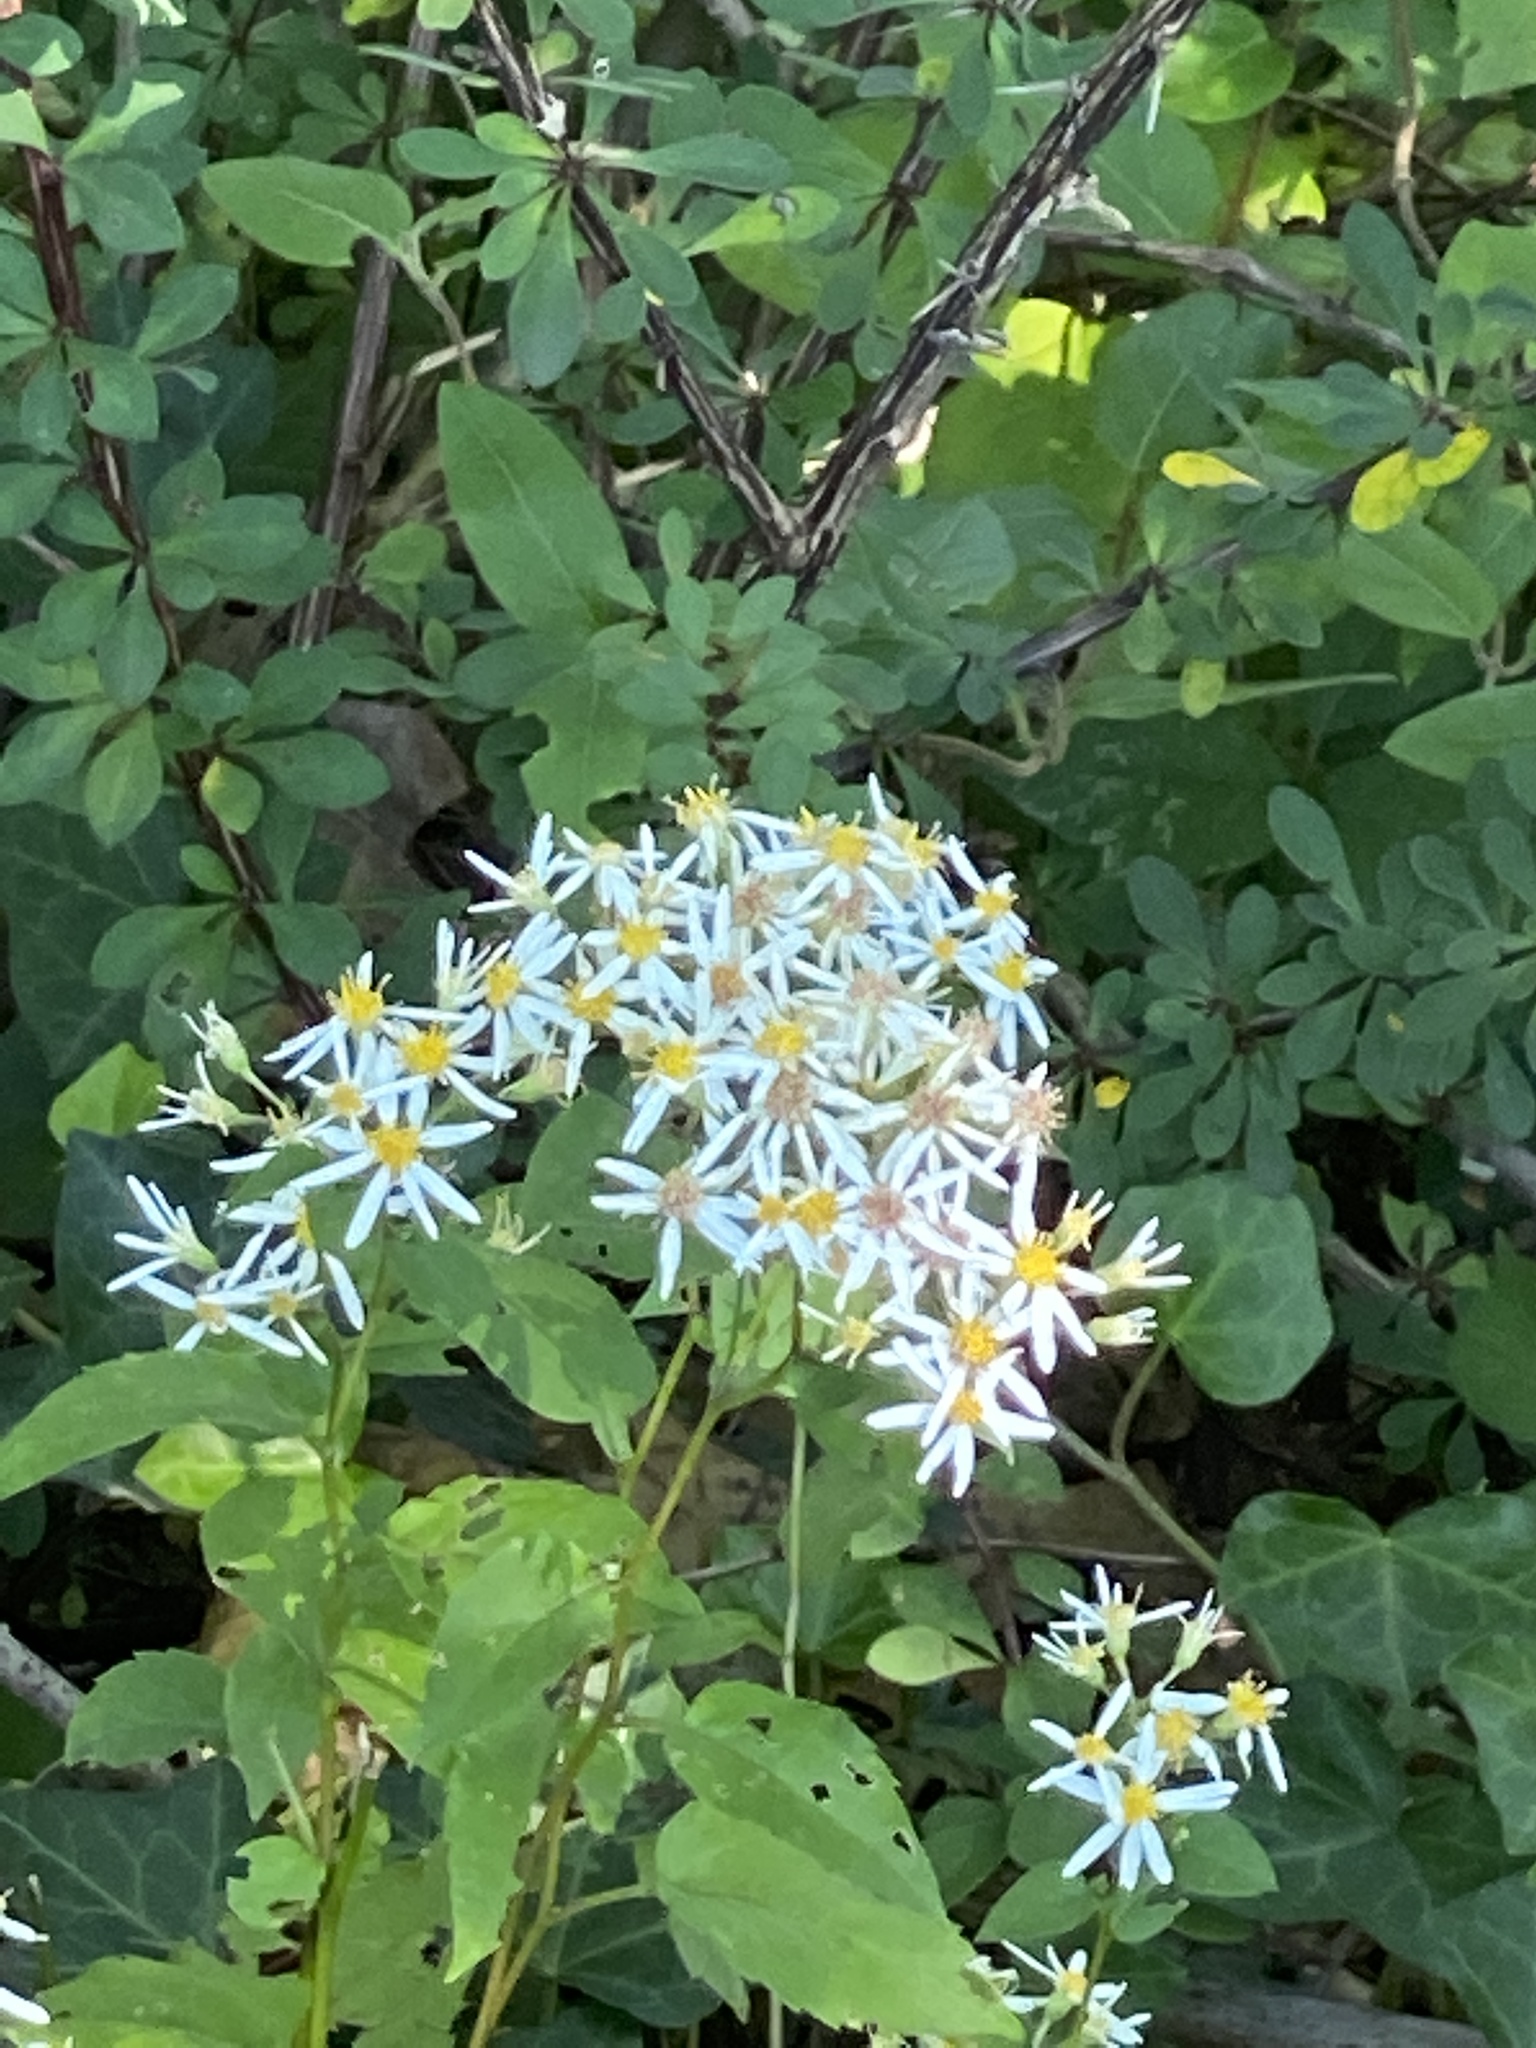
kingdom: Plantae
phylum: Tracheophyta
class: Magnoliopsida
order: Asterales
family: Asteraceae
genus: Eurybia
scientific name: Eurybia divaricata
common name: White wood aster
